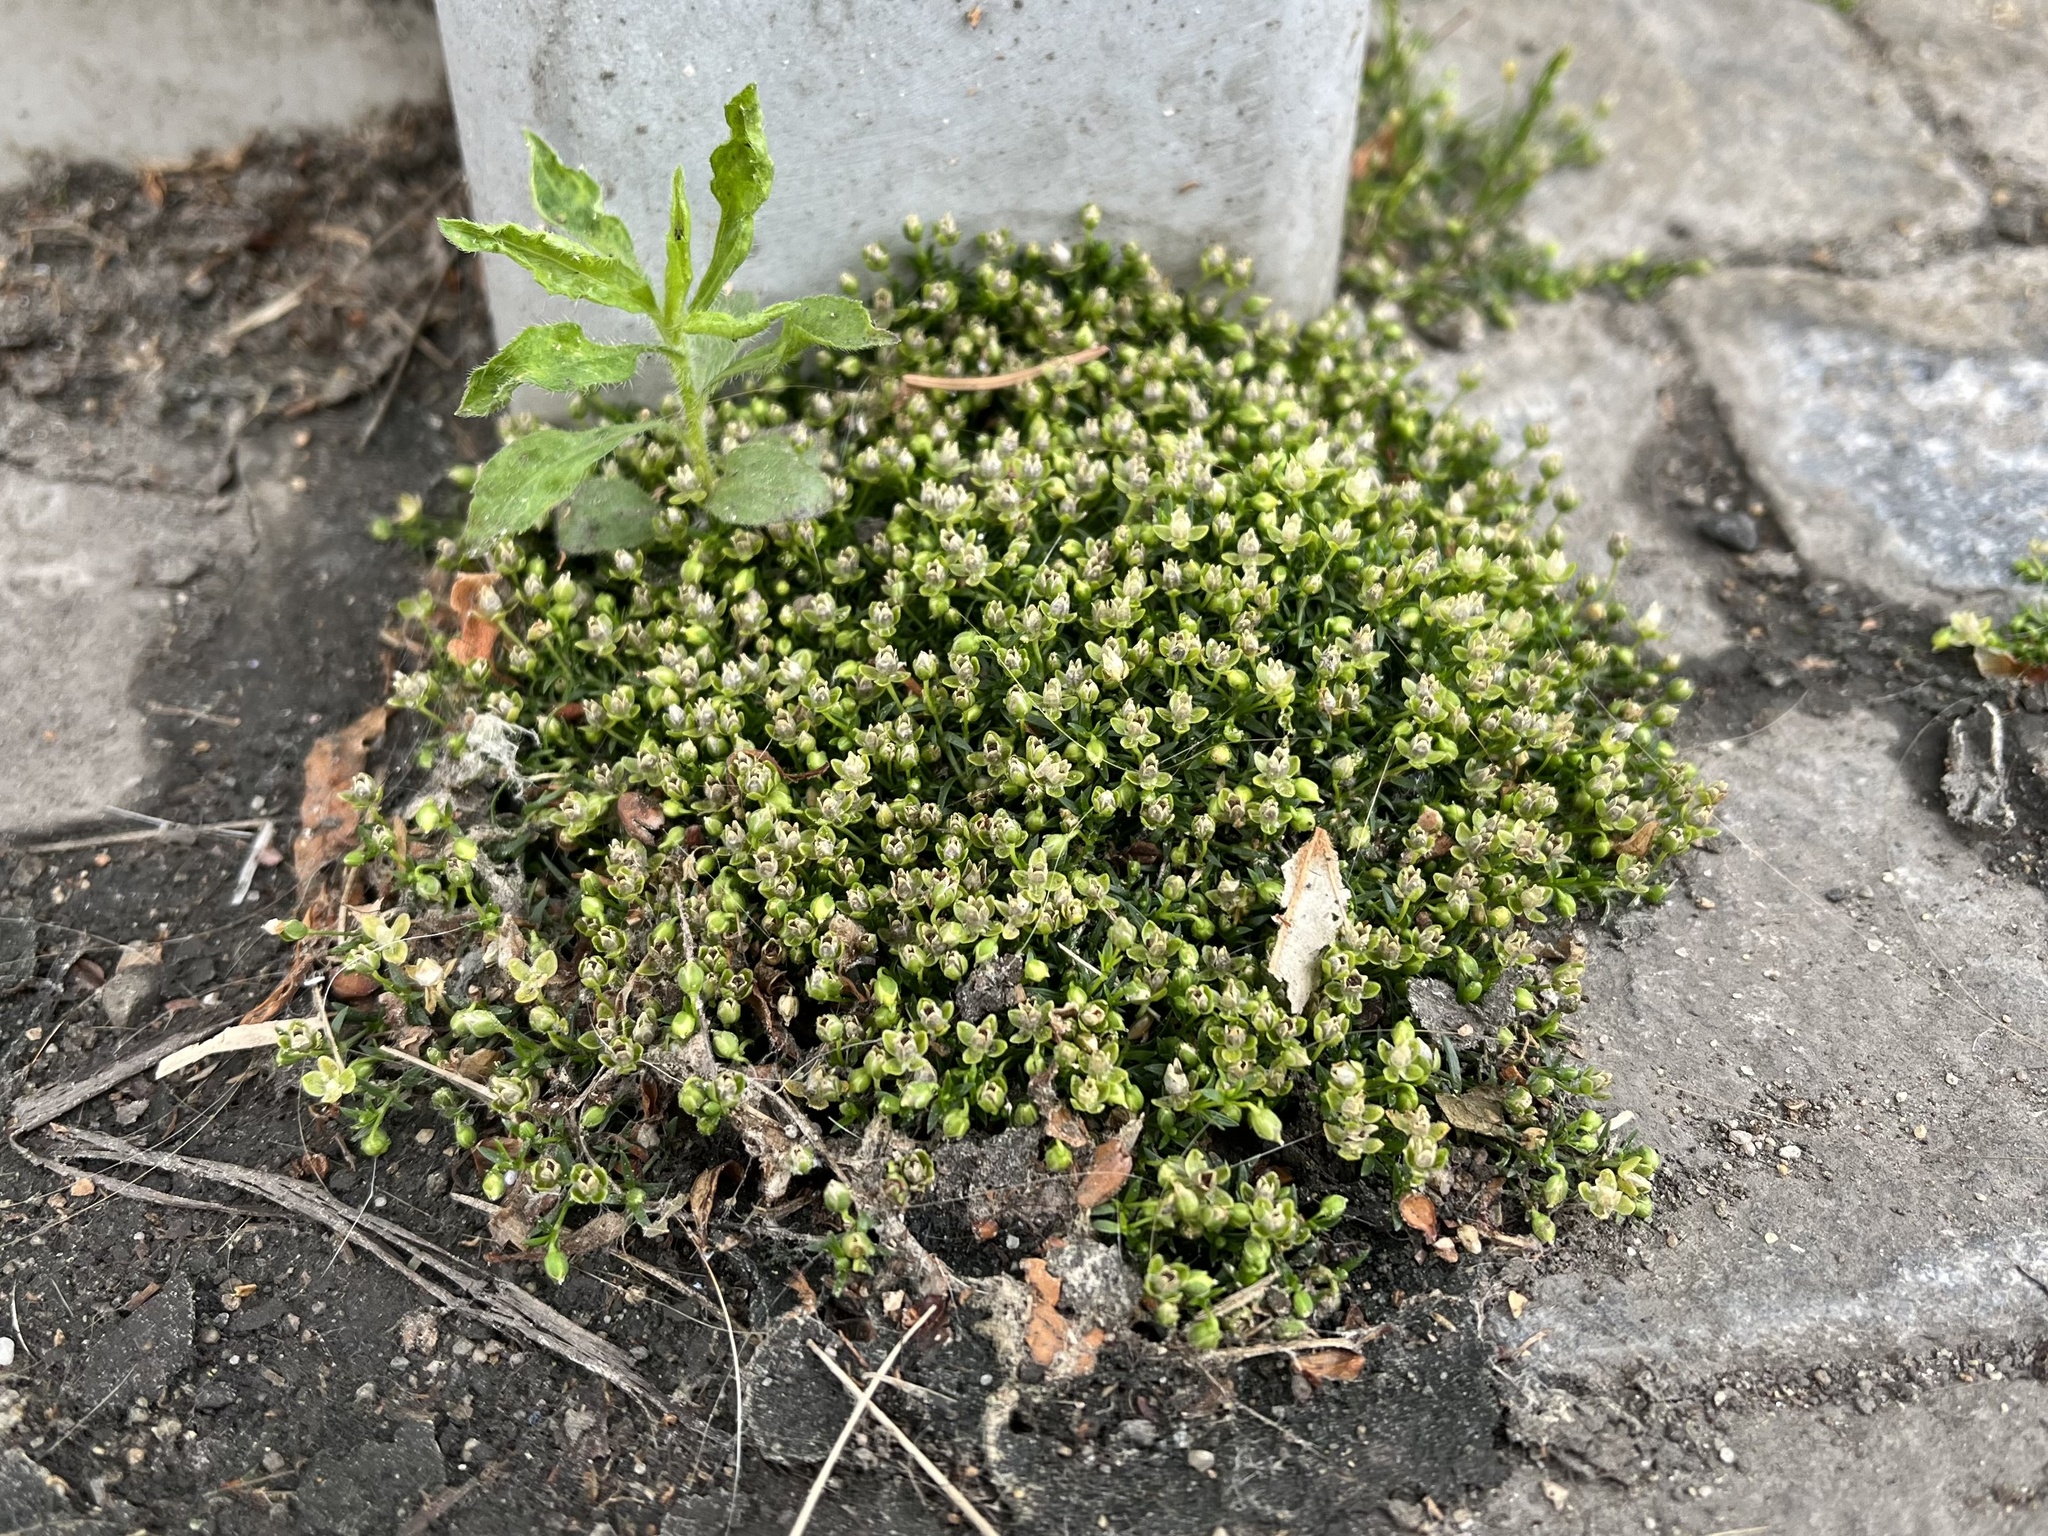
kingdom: Plantae
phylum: Tracheophyta
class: Magnoliopsida
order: Caryophyllales
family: Caryophyllaceae
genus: Sagina
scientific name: Sagina procumbens
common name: Procumbent pearlwort
